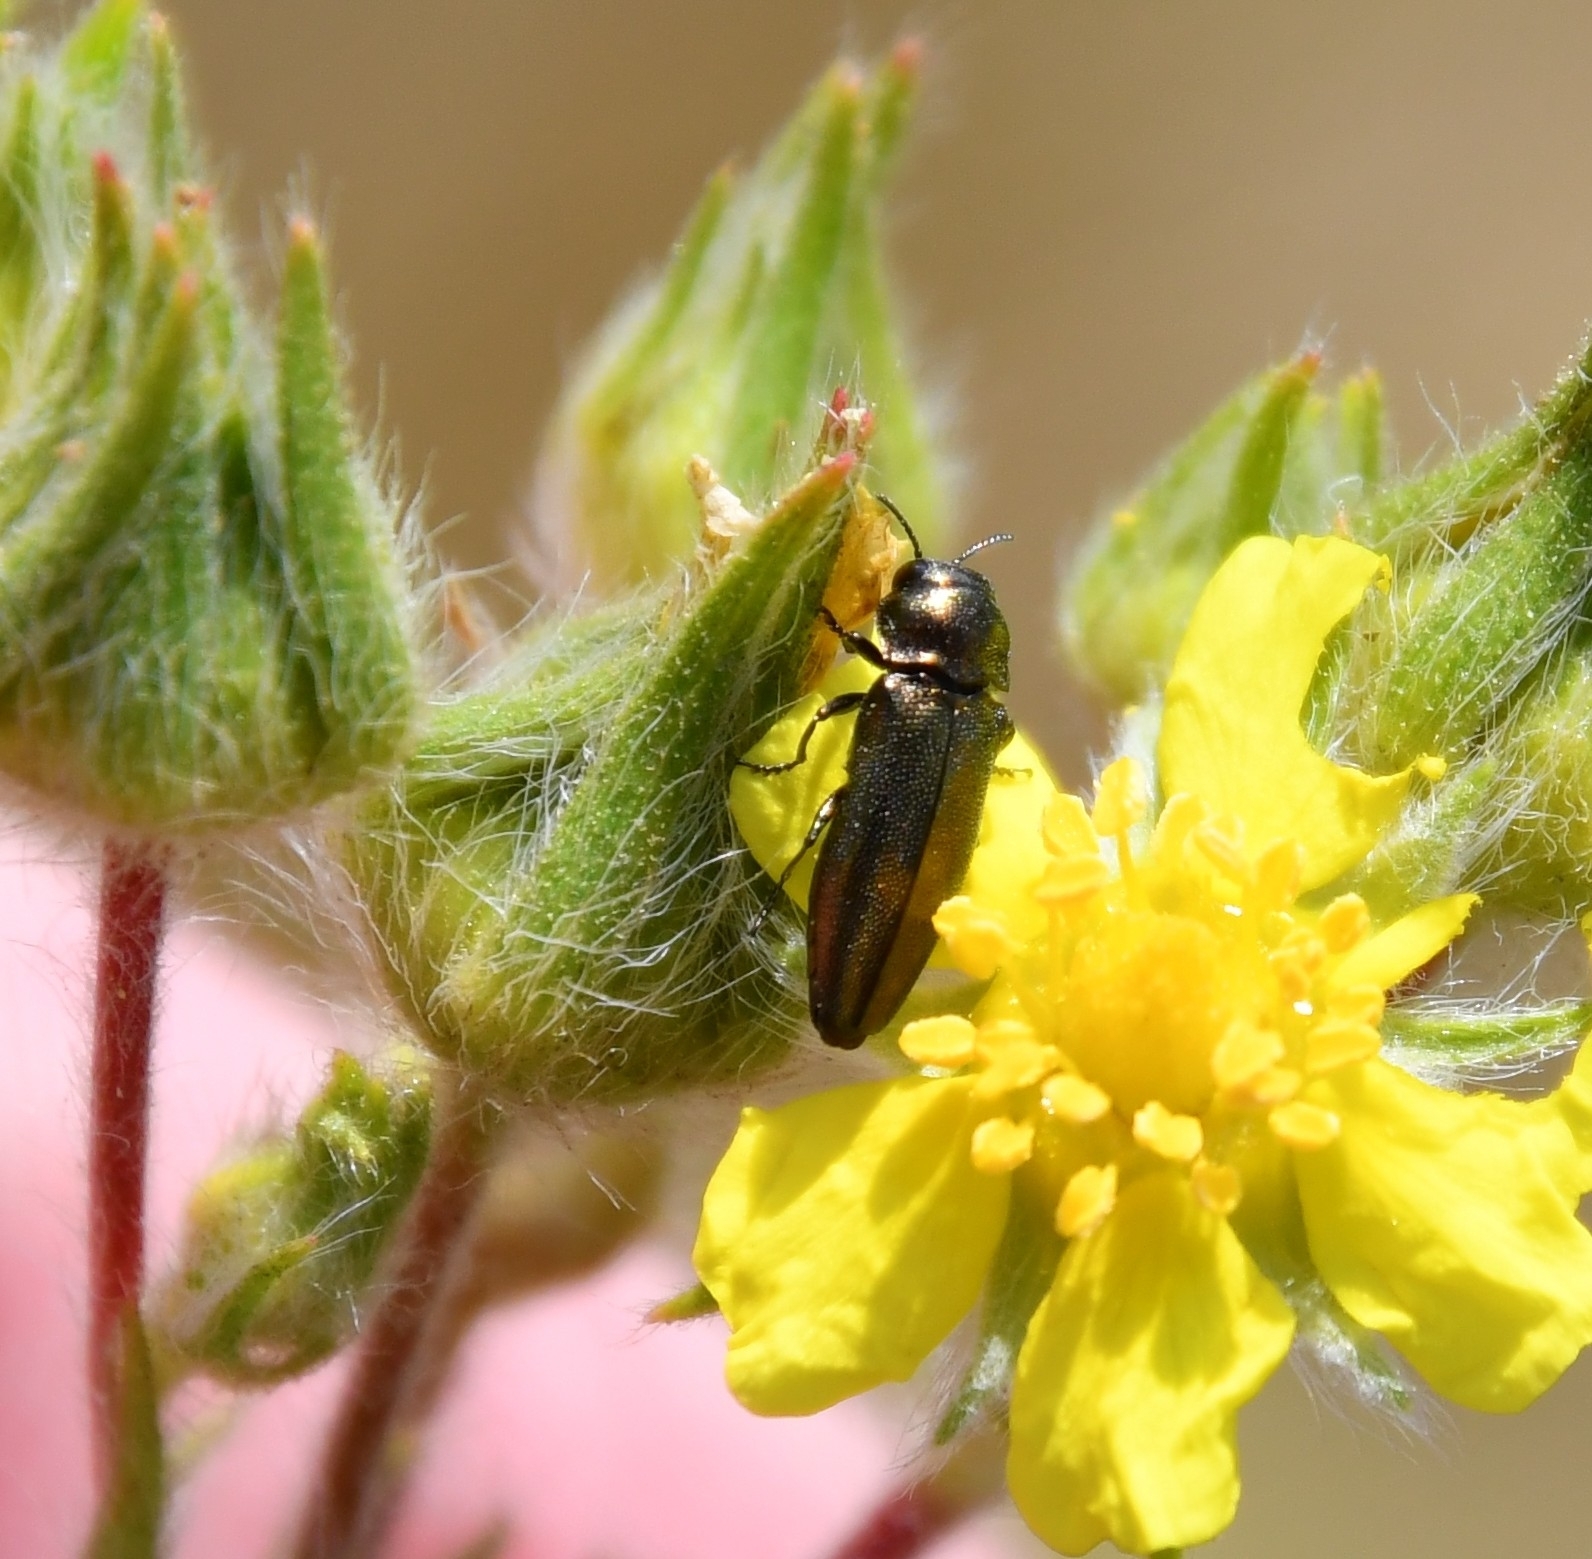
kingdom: Animalia
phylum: Arthropoda
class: Insecta
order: Coleoptera
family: Buprestidae
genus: Coraebus
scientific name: Coraebus elatus
